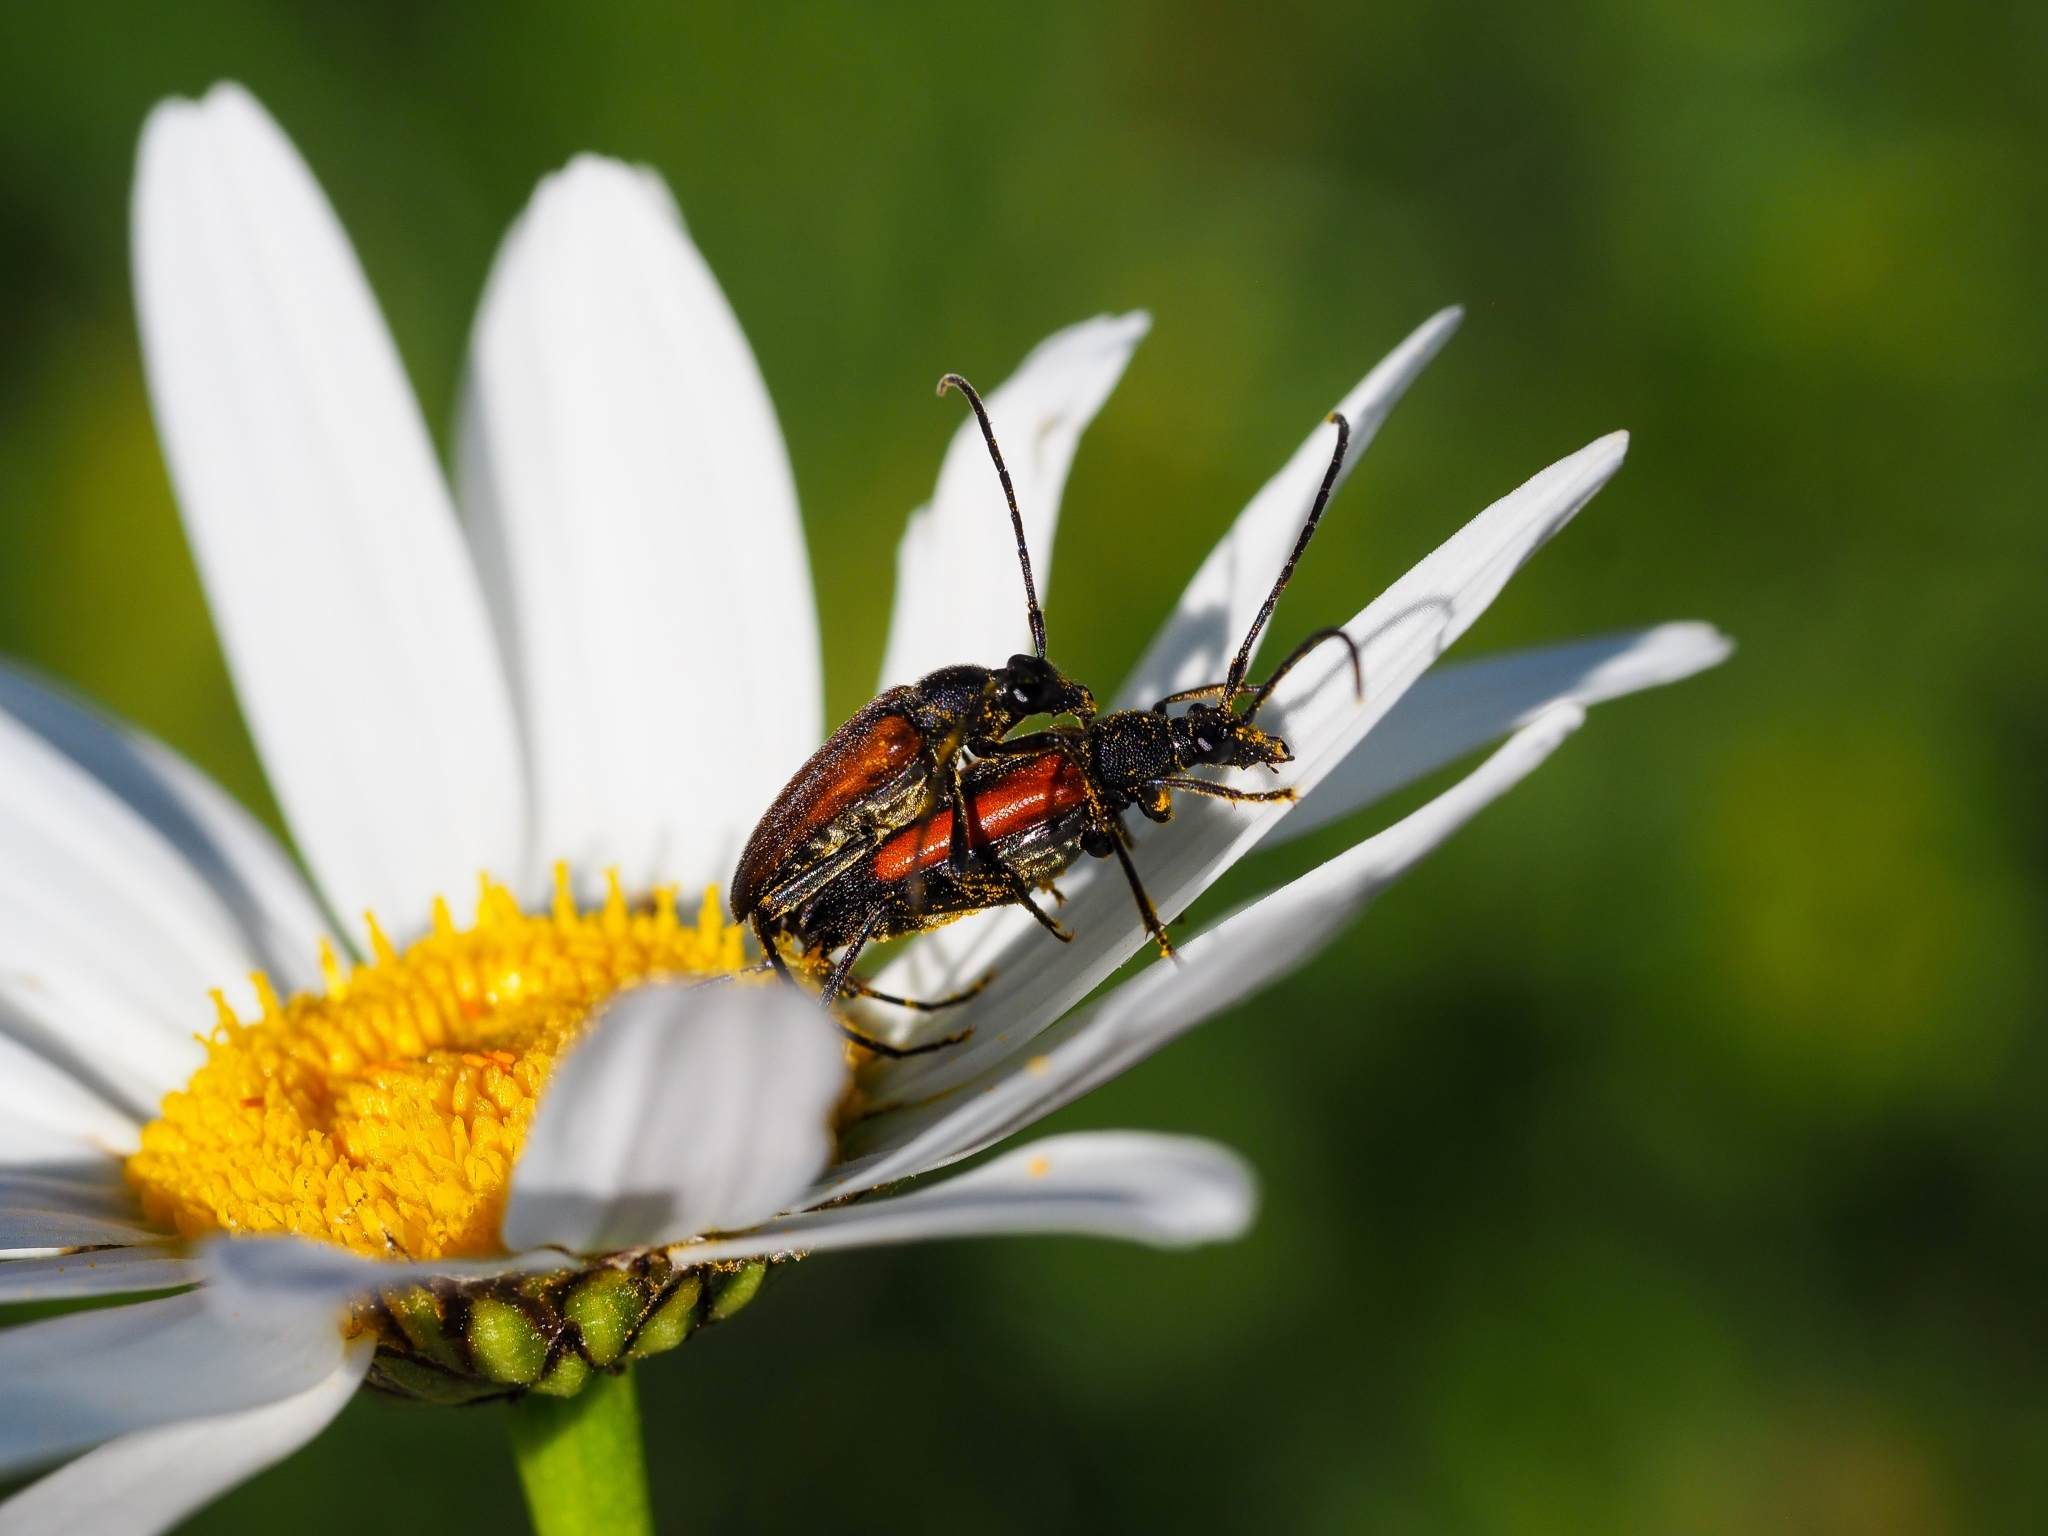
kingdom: Animalia
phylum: Arthropoda
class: Insecta
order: Coleoptera
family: Cerambycidae
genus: Stenurella
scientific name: Stenurella melanura
